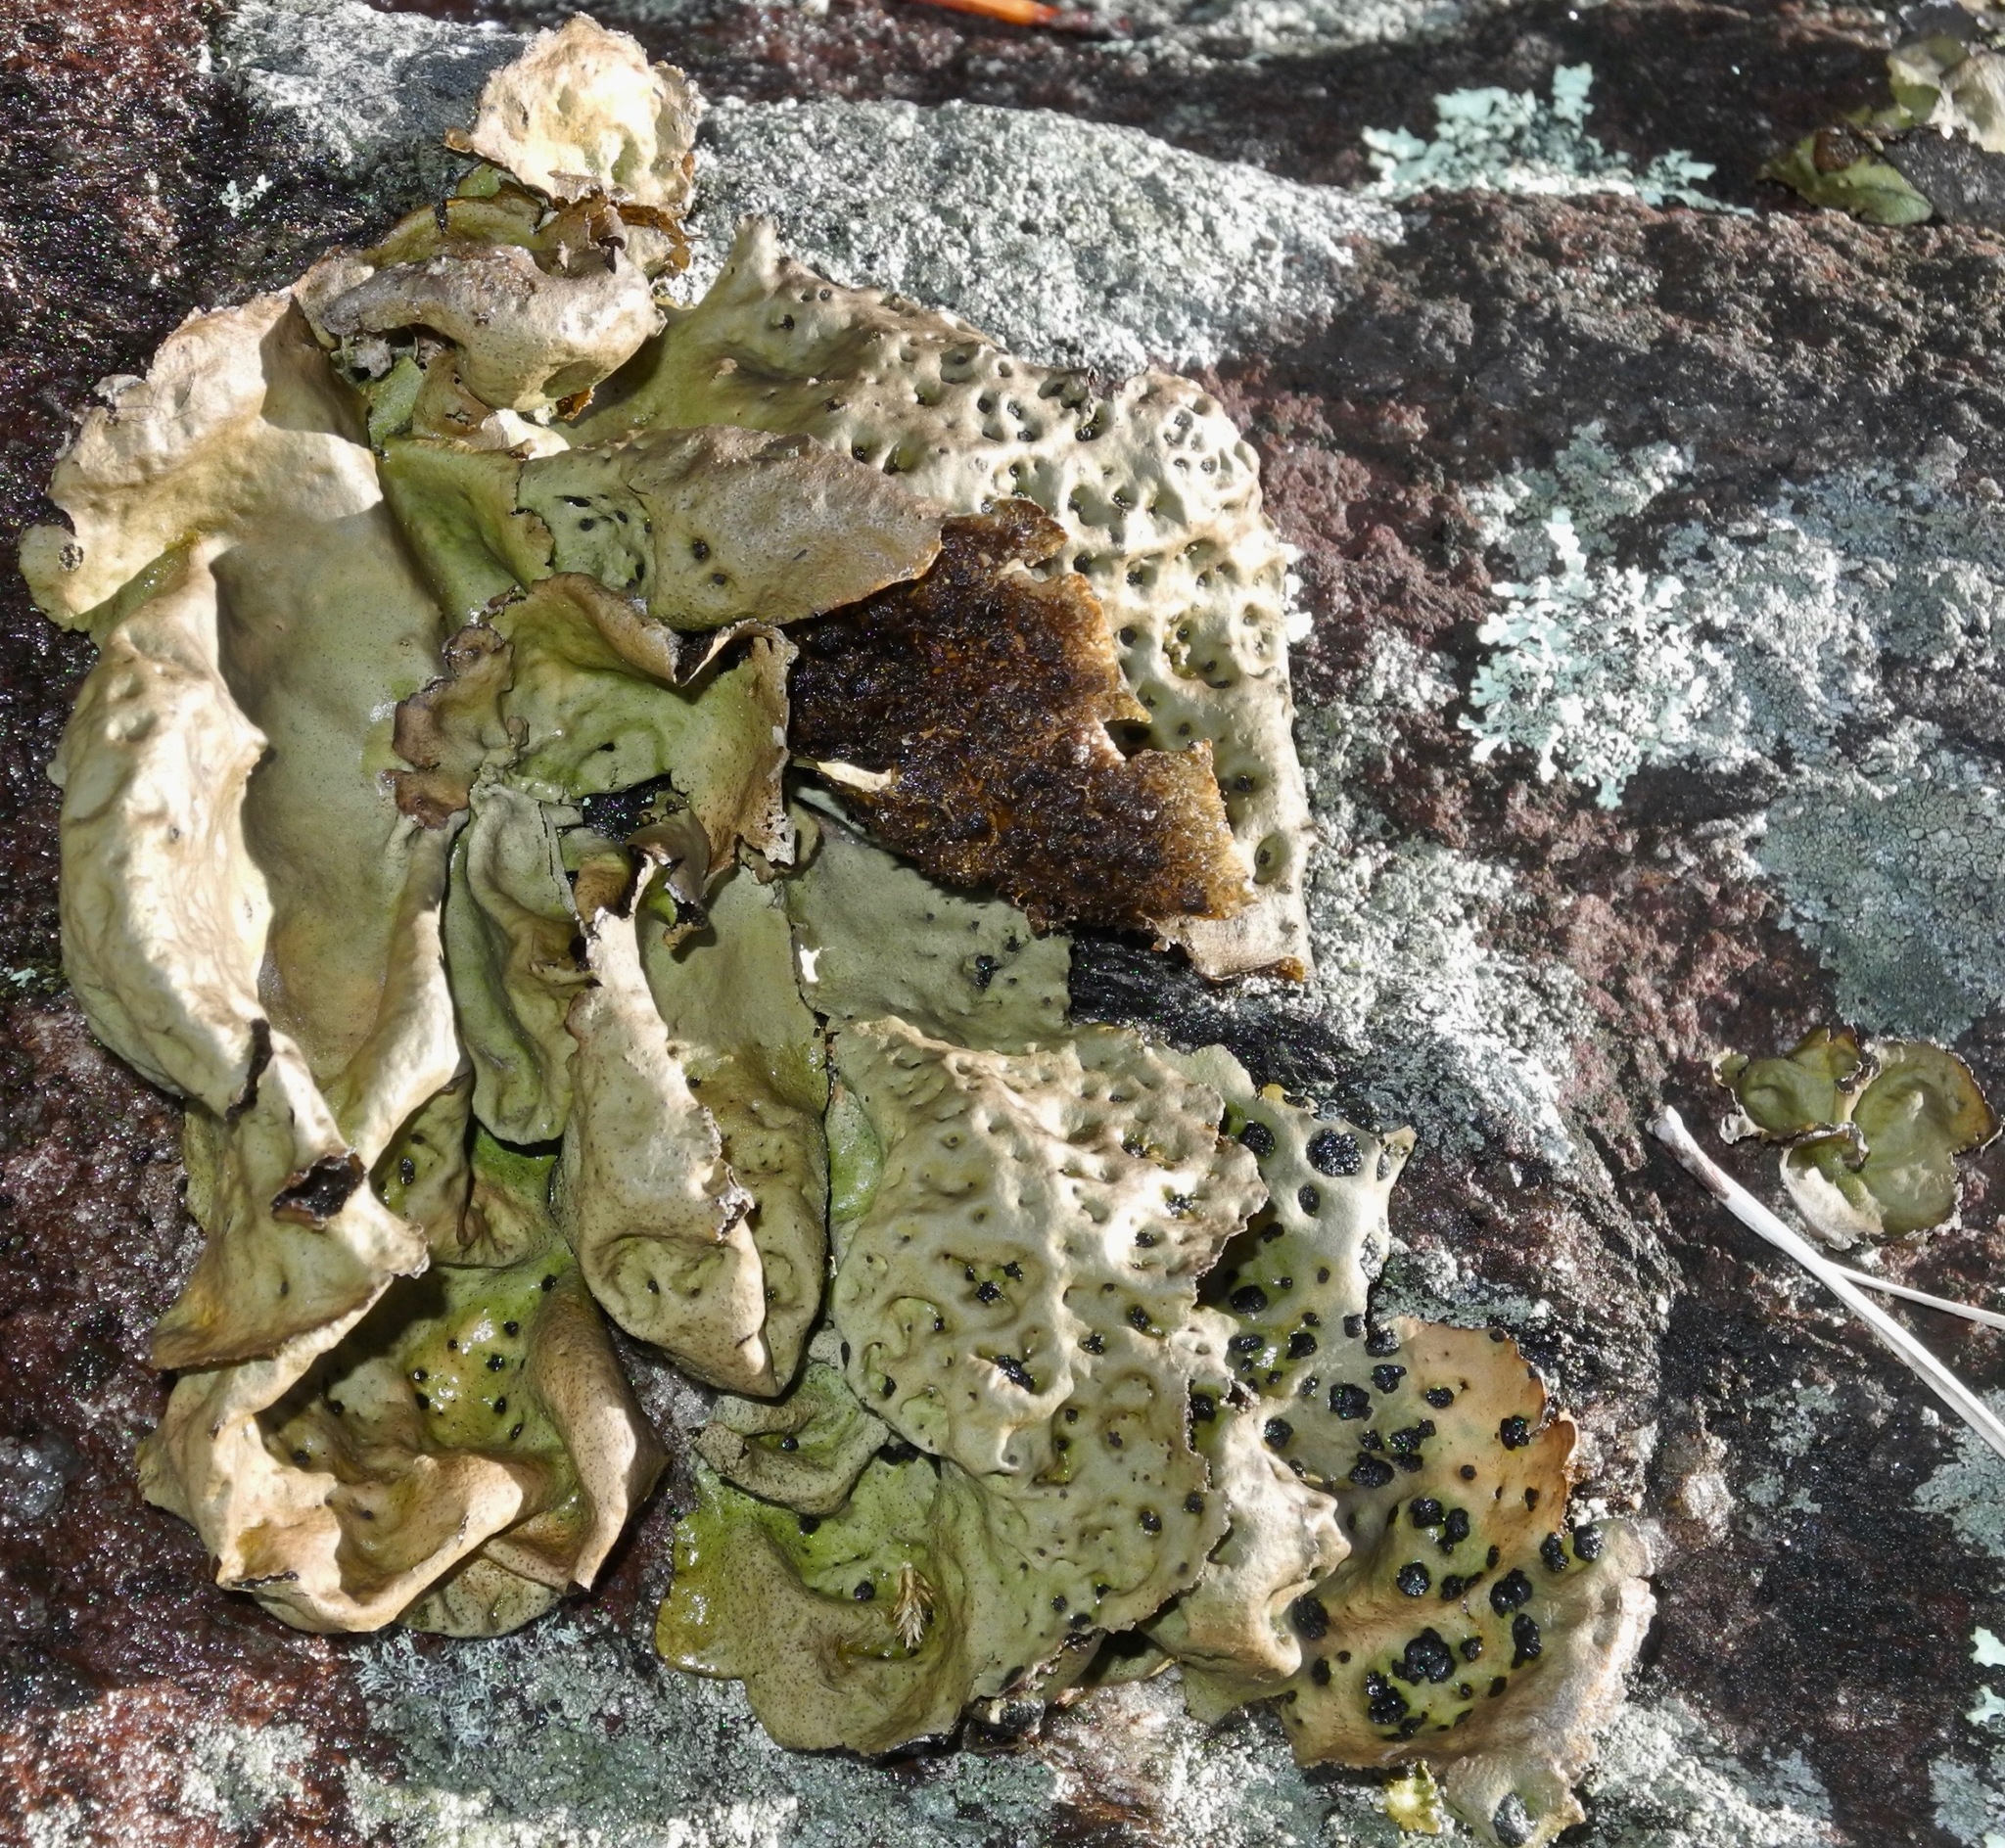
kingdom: Fungi
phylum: Ascomycota
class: Lecanoromycetes
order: Umbilicariales
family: Umbilicariaceae
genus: Umbilicaria
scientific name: Umbilicaria muhlenbergii
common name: Lesser rocktripe
